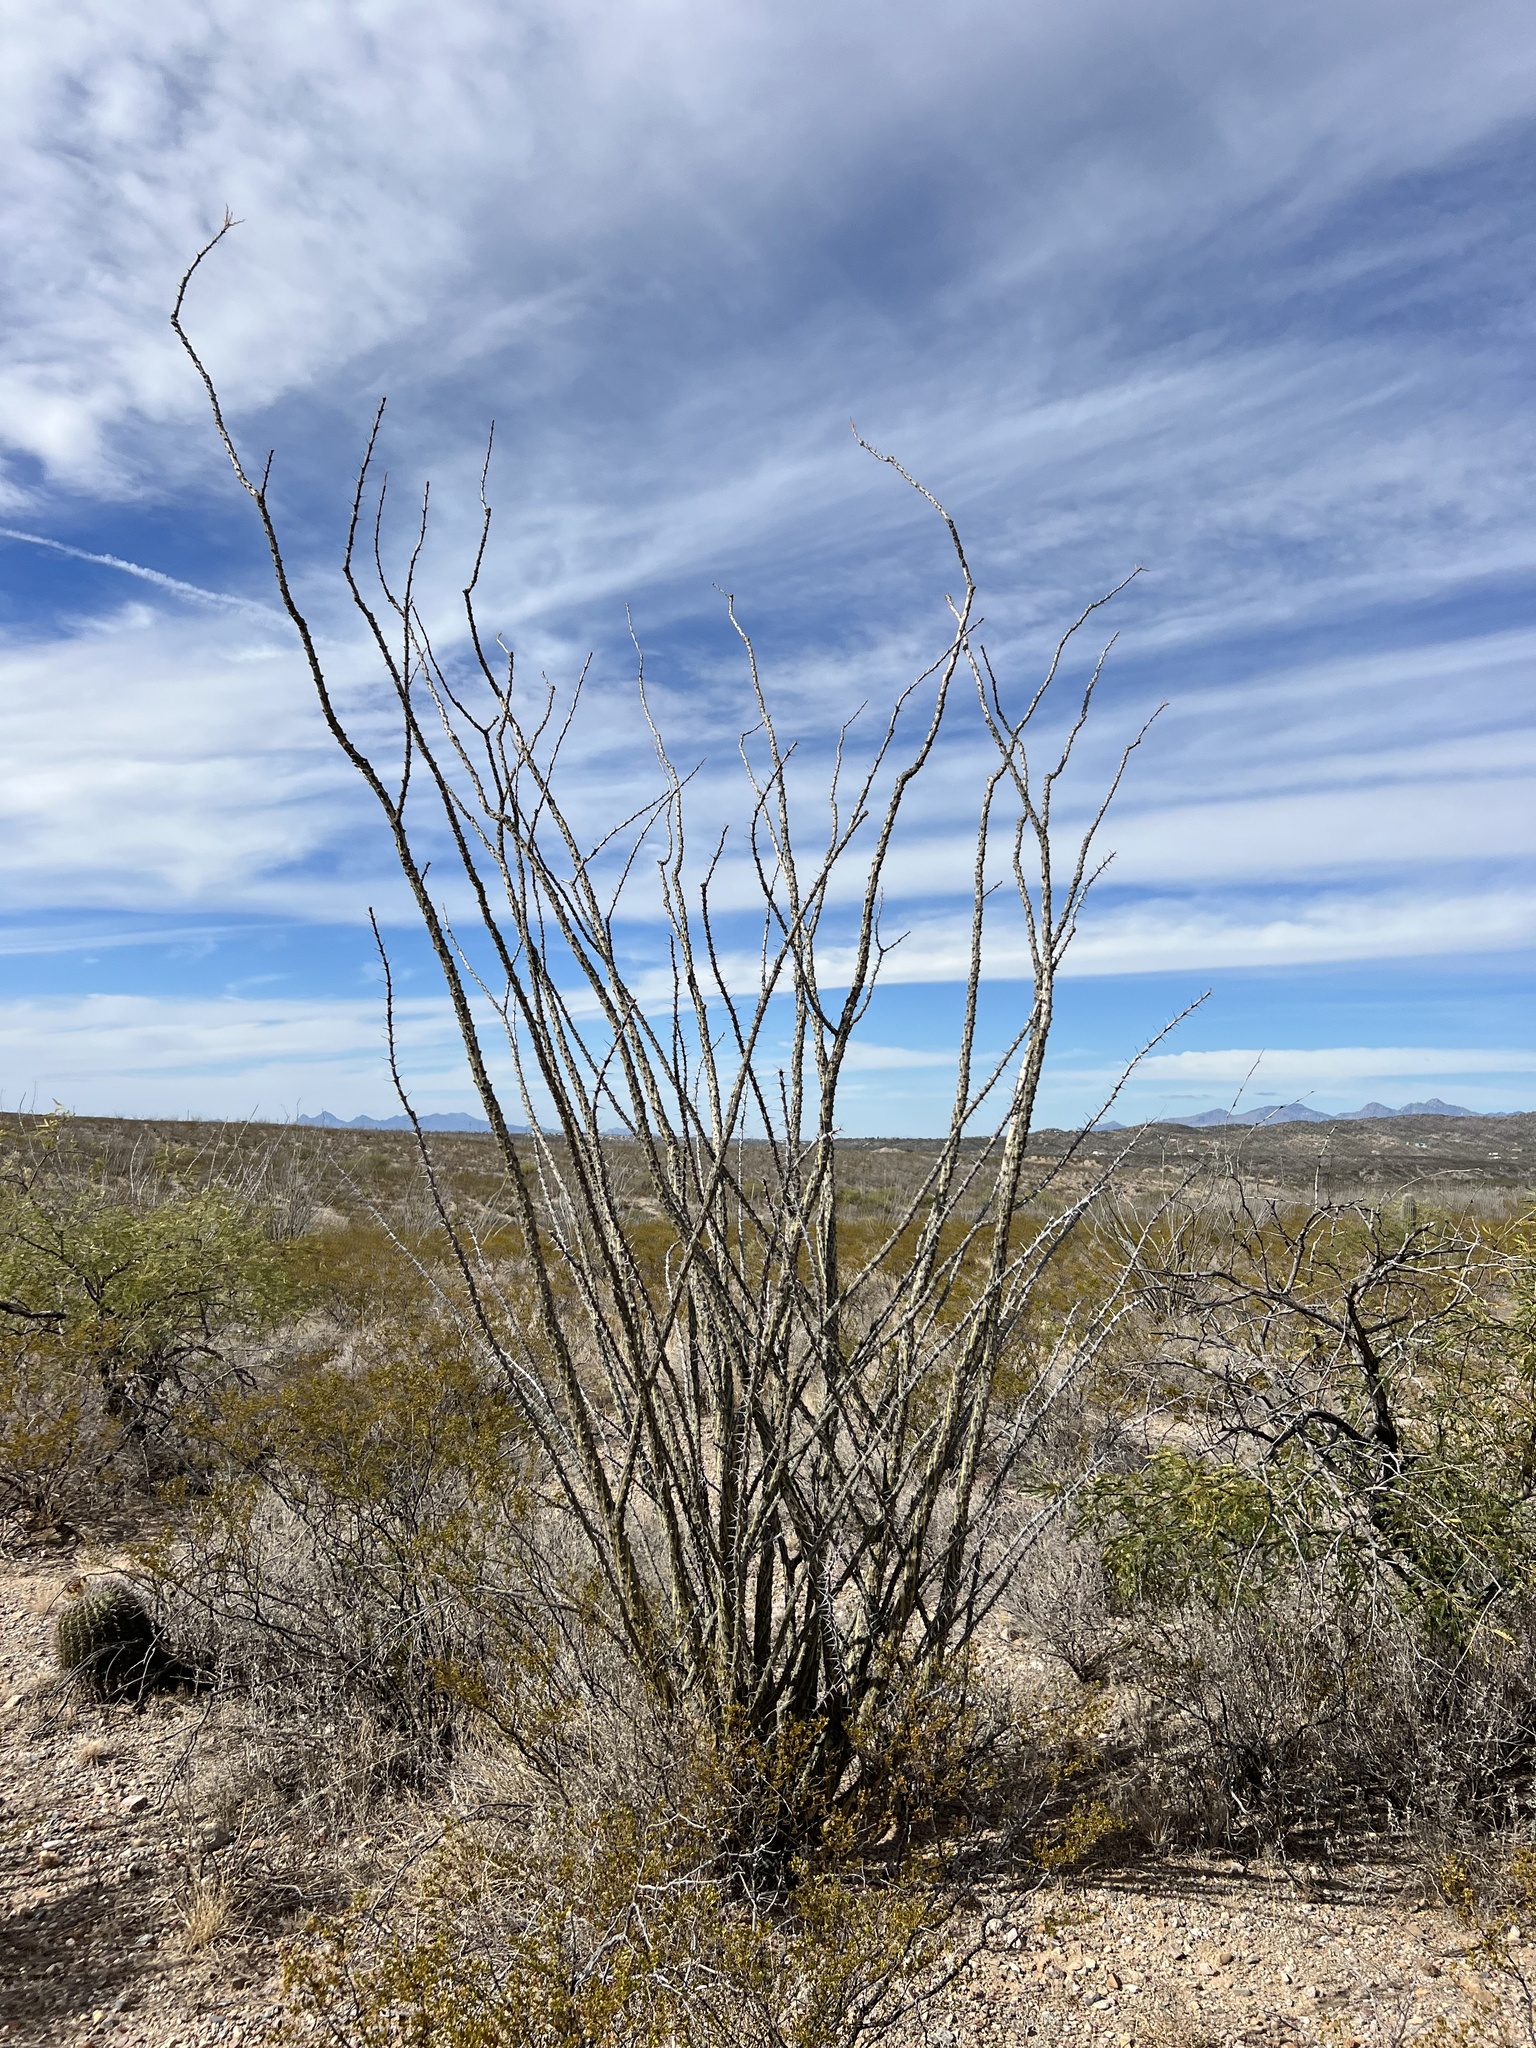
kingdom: Plantae
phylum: Tracheophyta
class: Magnoliopsida
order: Ericales
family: Fouquieriaceae
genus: Fouquieria
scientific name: Fouquieria splendens
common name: Vine-cactus
